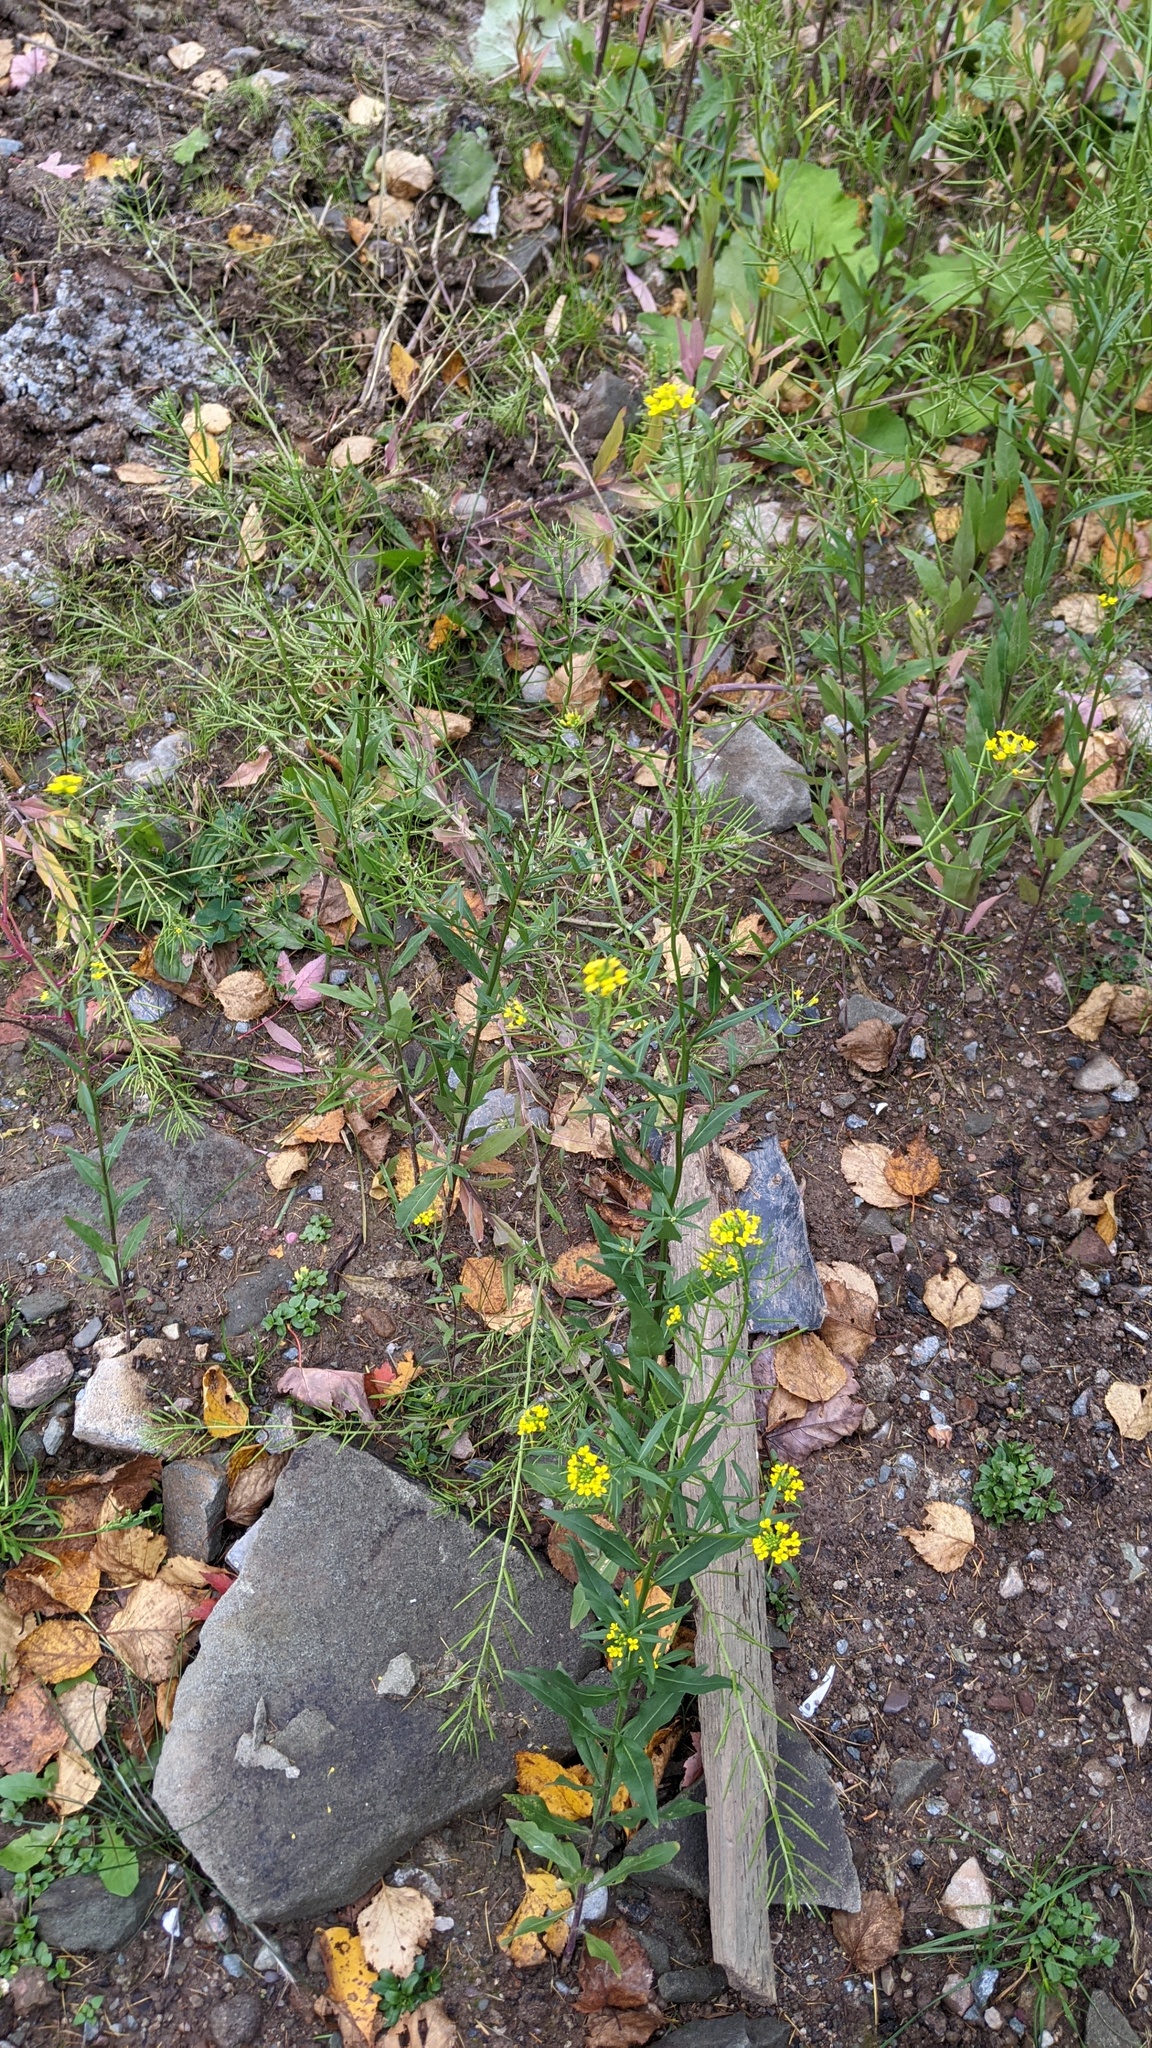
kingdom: Plantae
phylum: Tracheophyta
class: Magnoliopsida
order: Brassicales
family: Brassicaceae
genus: Erysimum
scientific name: Erysimum cheiranthoides
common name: Treacle mustard
